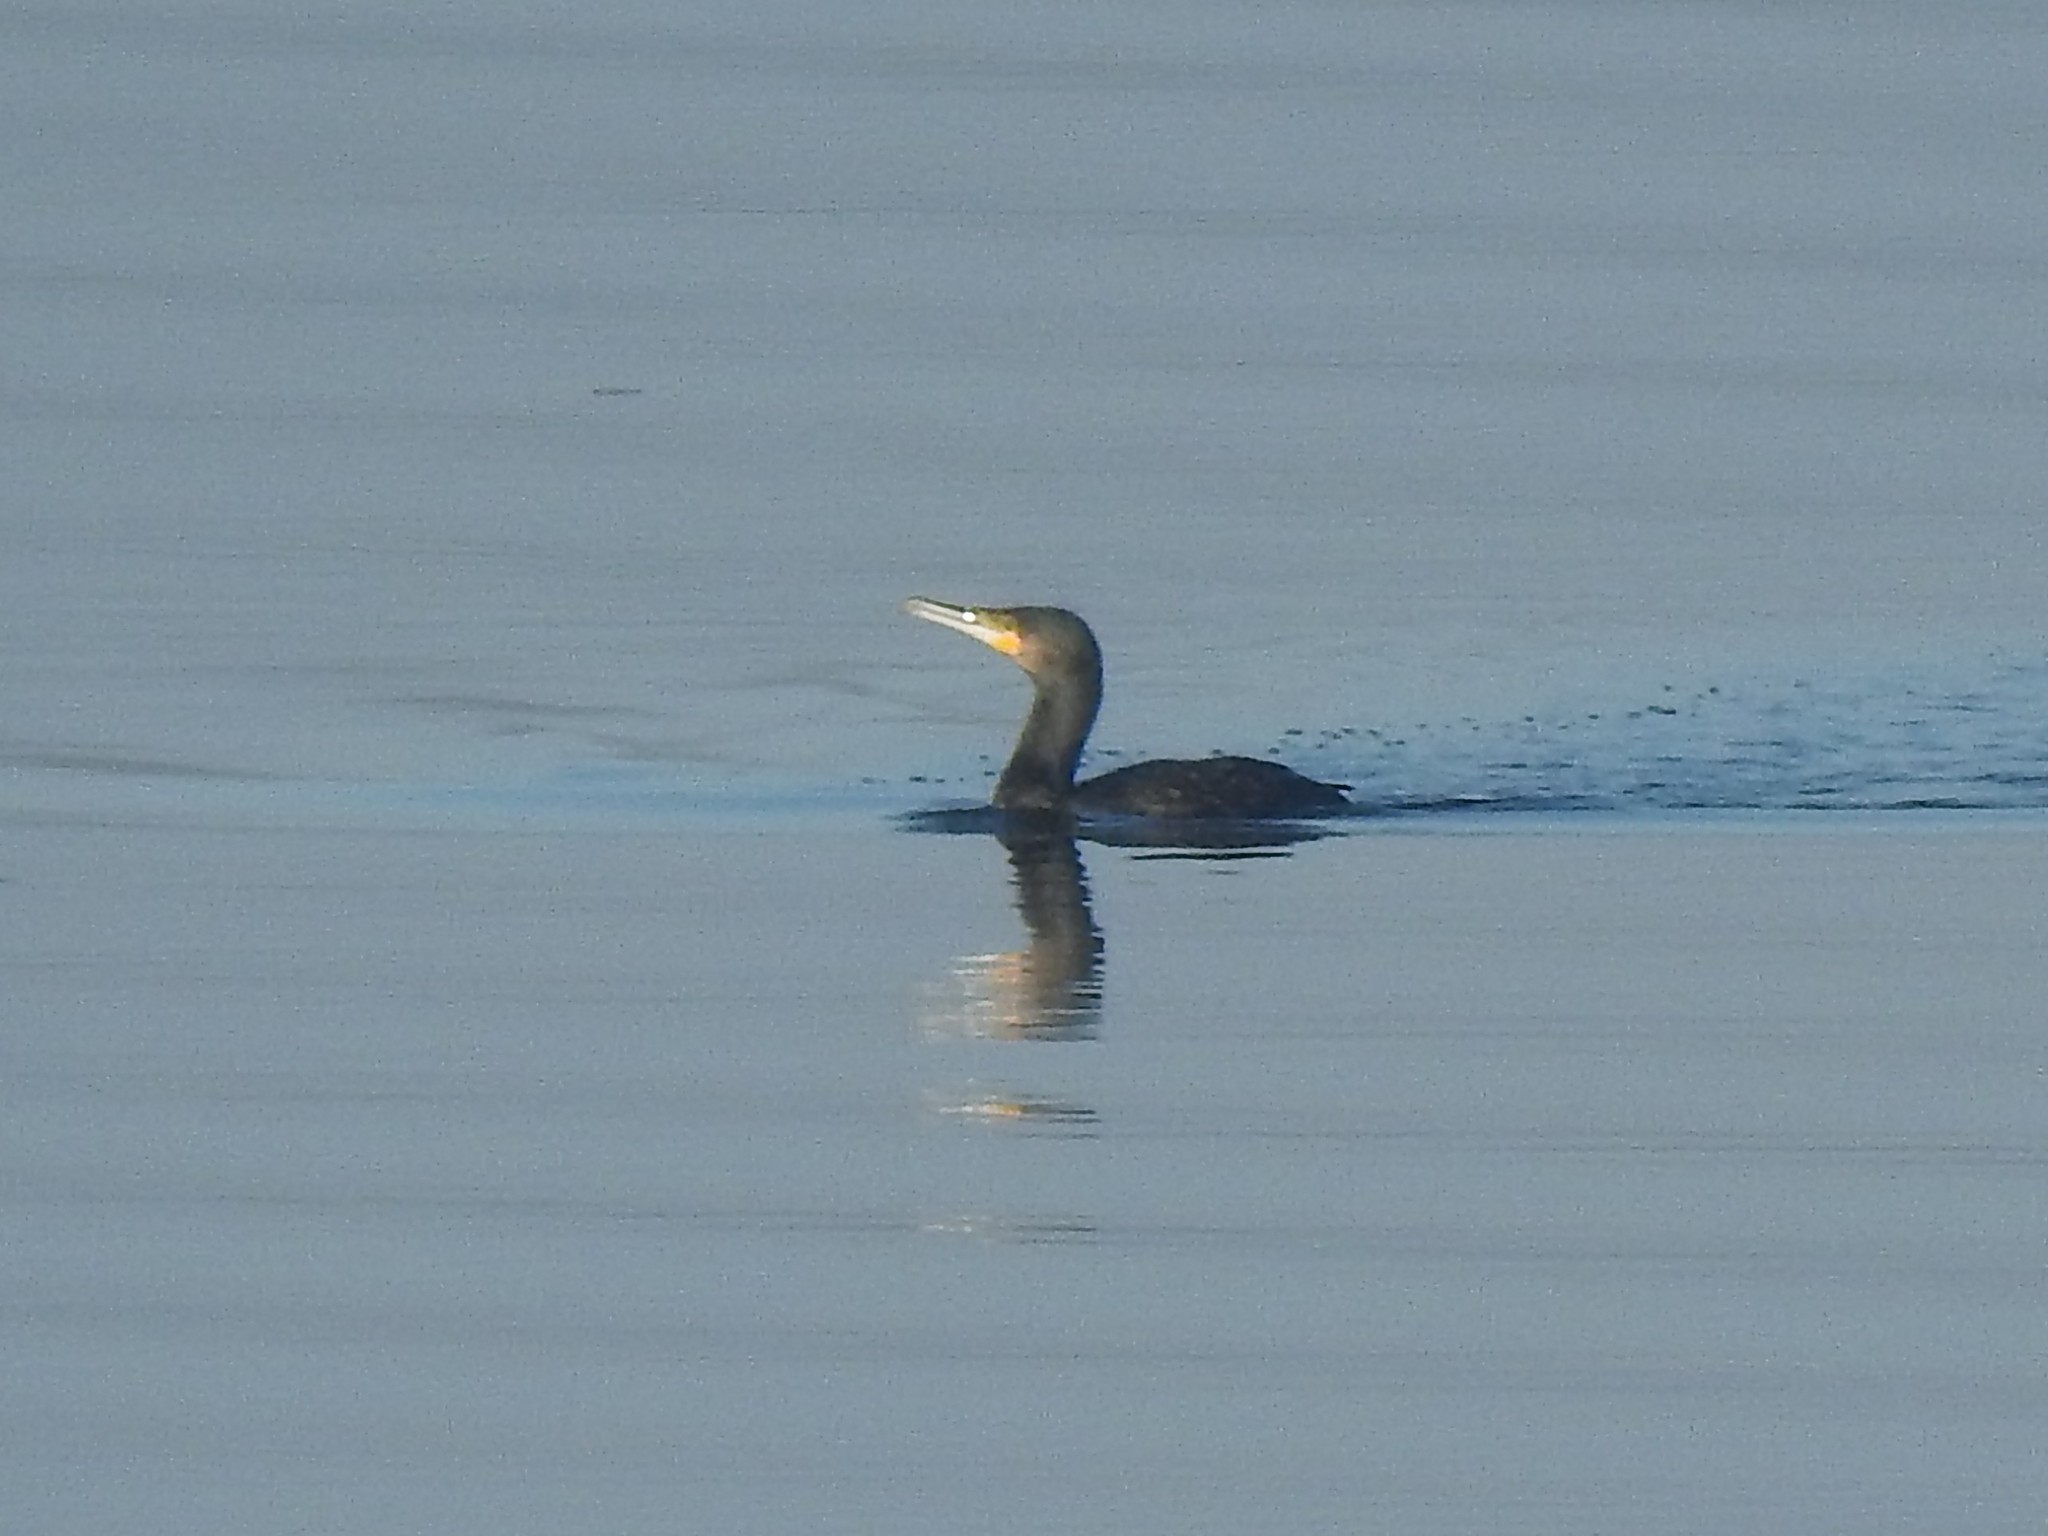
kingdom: Animalia
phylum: Chordata
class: Aves
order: Suliformes
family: Phalacrocoracidae
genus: Phalacrocorax
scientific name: Phalacrocorax carbo
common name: Great cormorant
